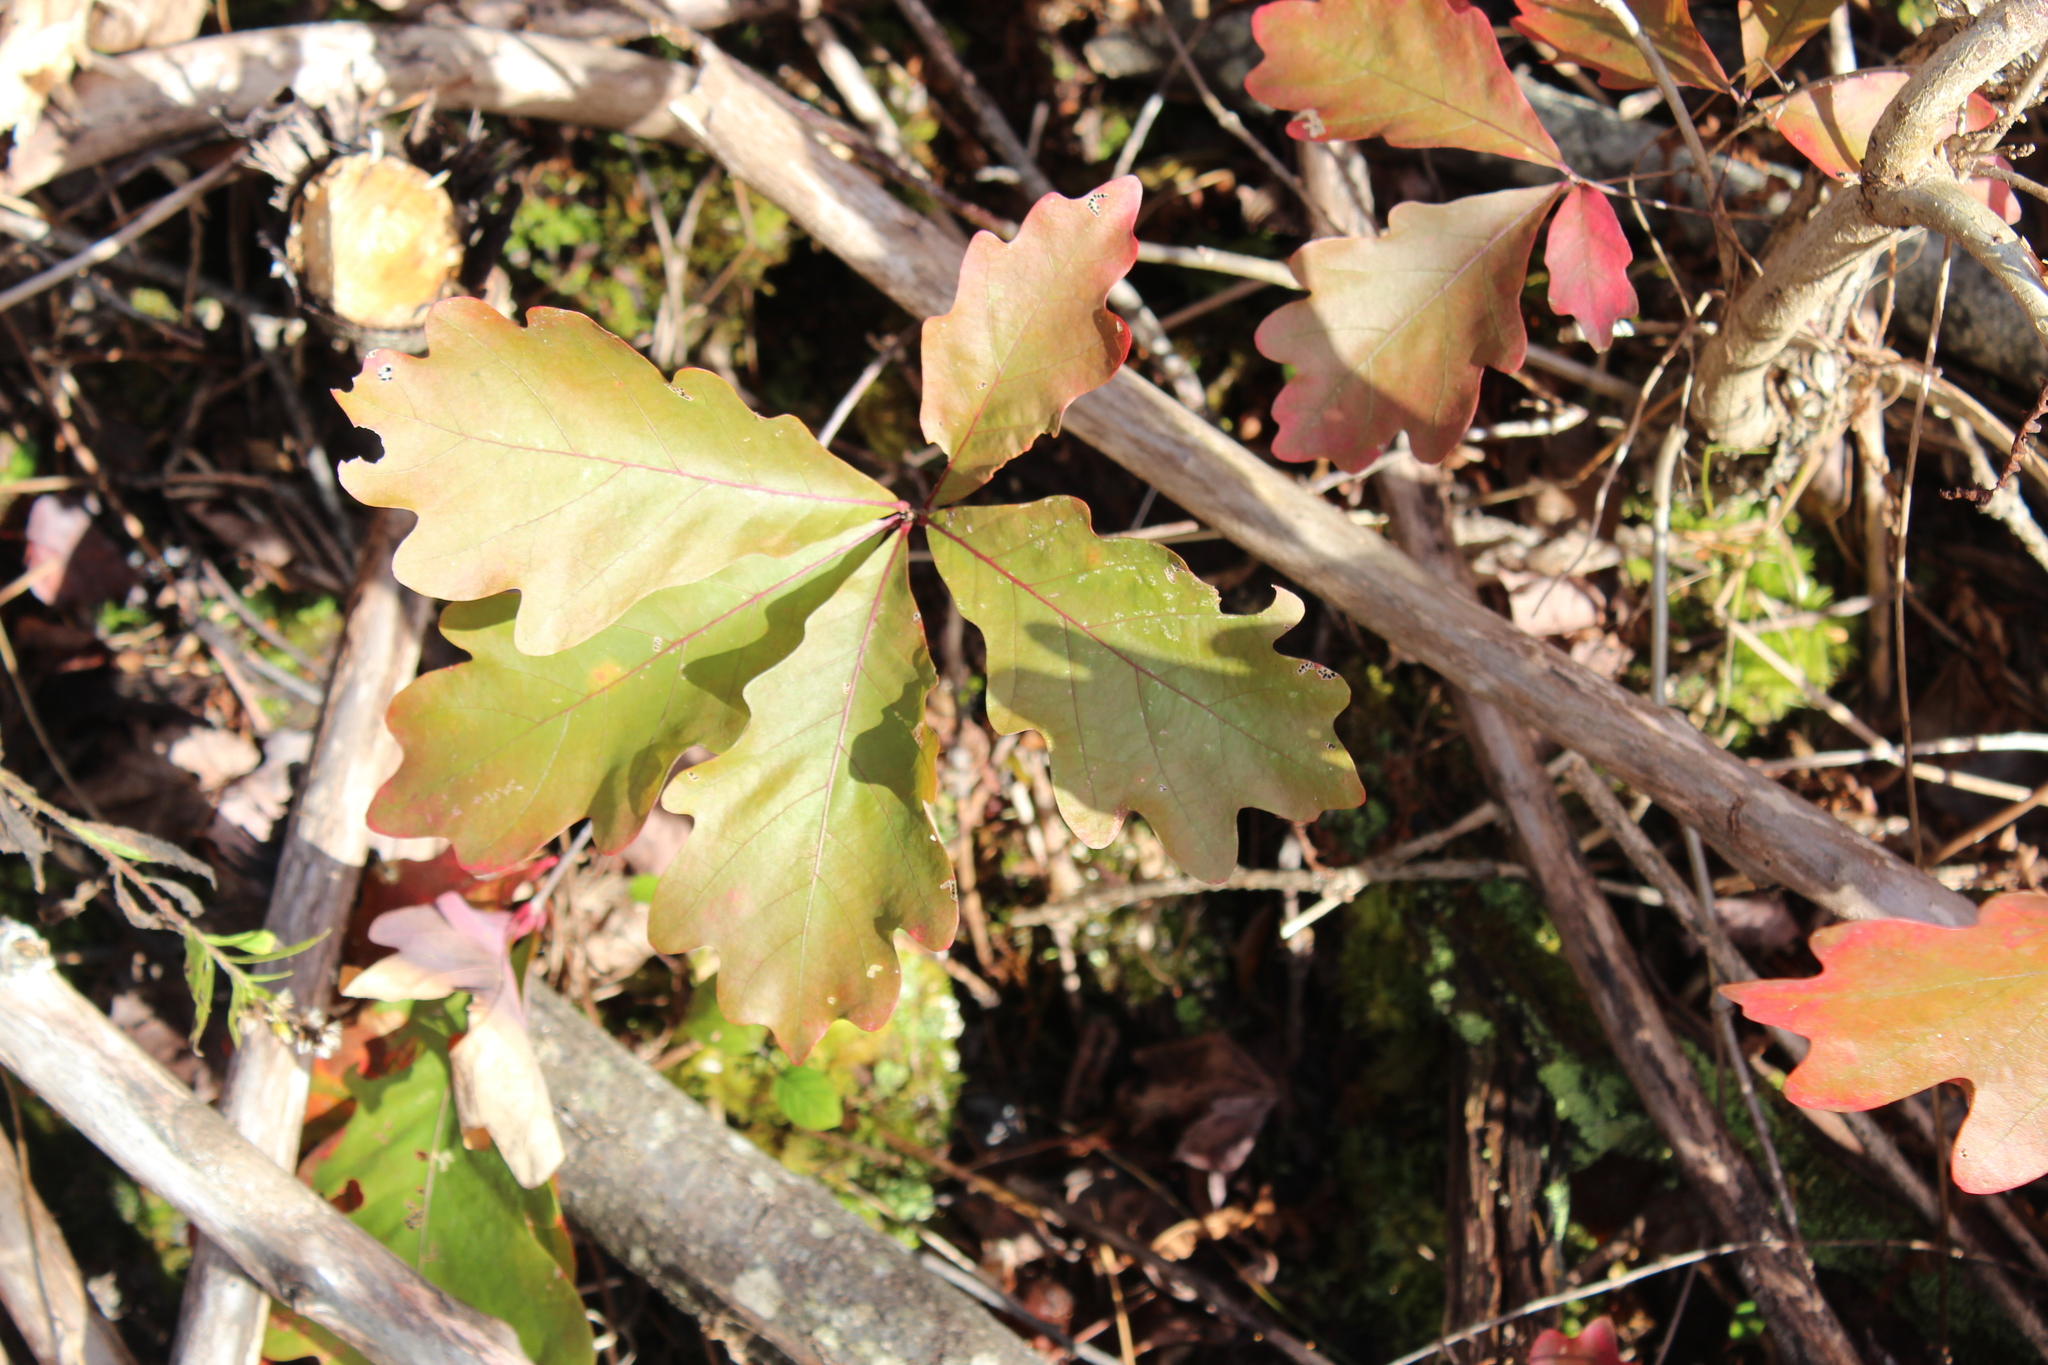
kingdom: Plantae
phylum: Tracheophyta
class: Magnoliopsida
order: Fagales
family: Fagaceae
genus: Quercus
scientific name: Quercus alba
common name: White oak
